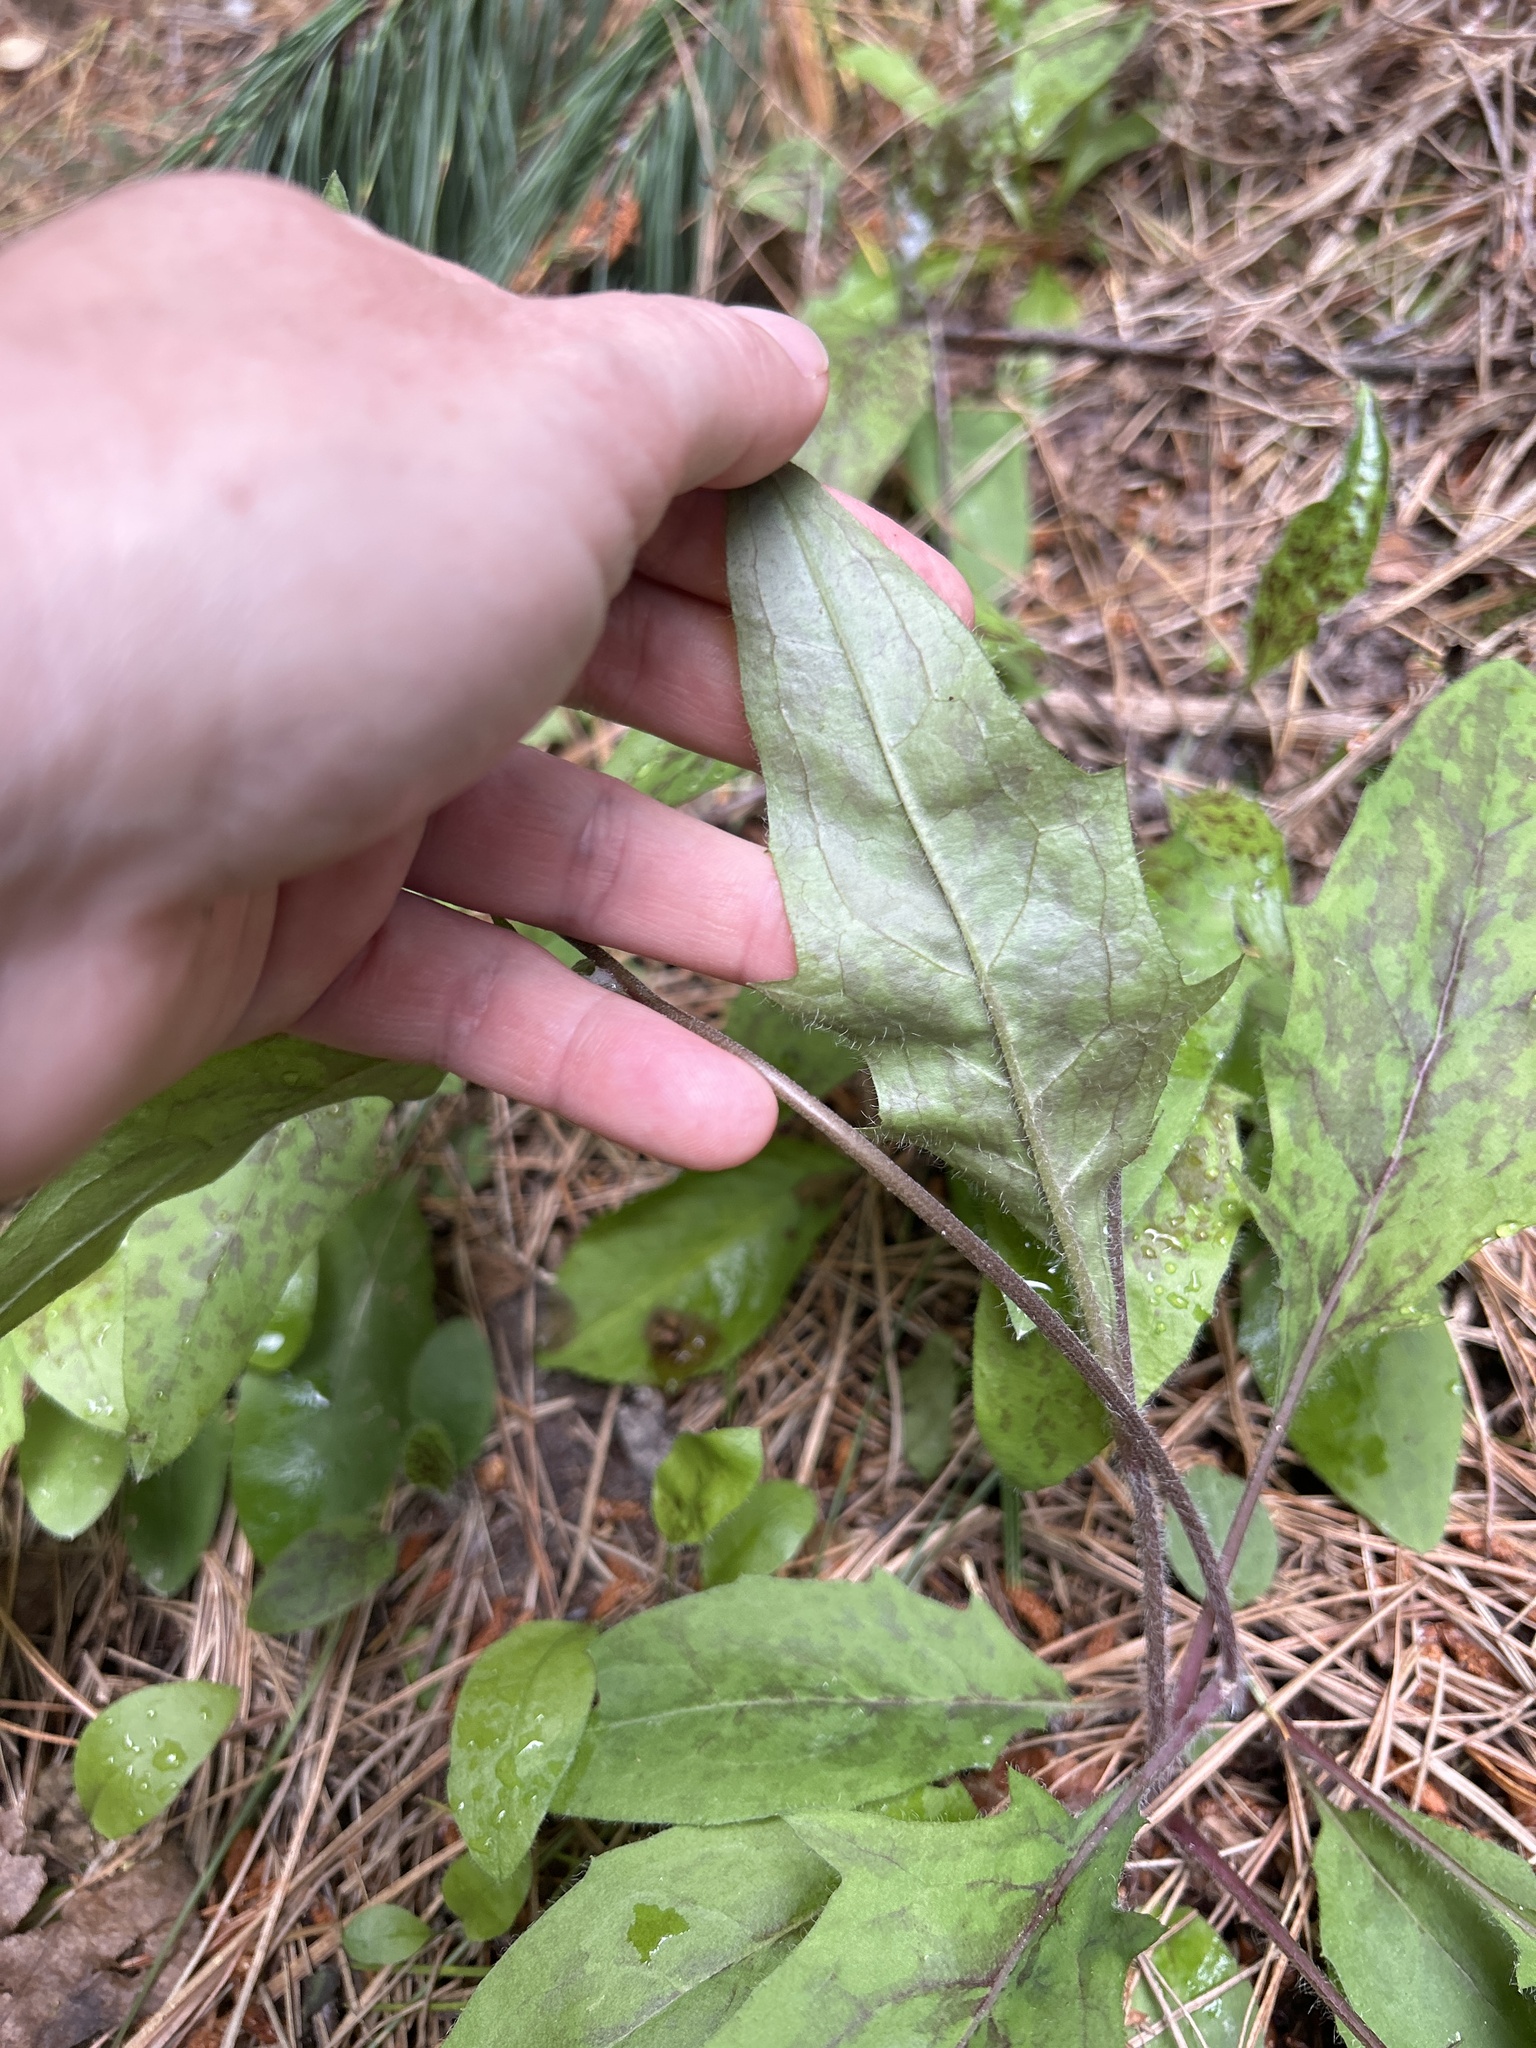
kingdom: Plantae
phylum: Tracheophyta
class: Magnoliopsida
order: Asterales
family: Asteraceae
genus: Hieracium
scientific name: Hieracium maculatum
